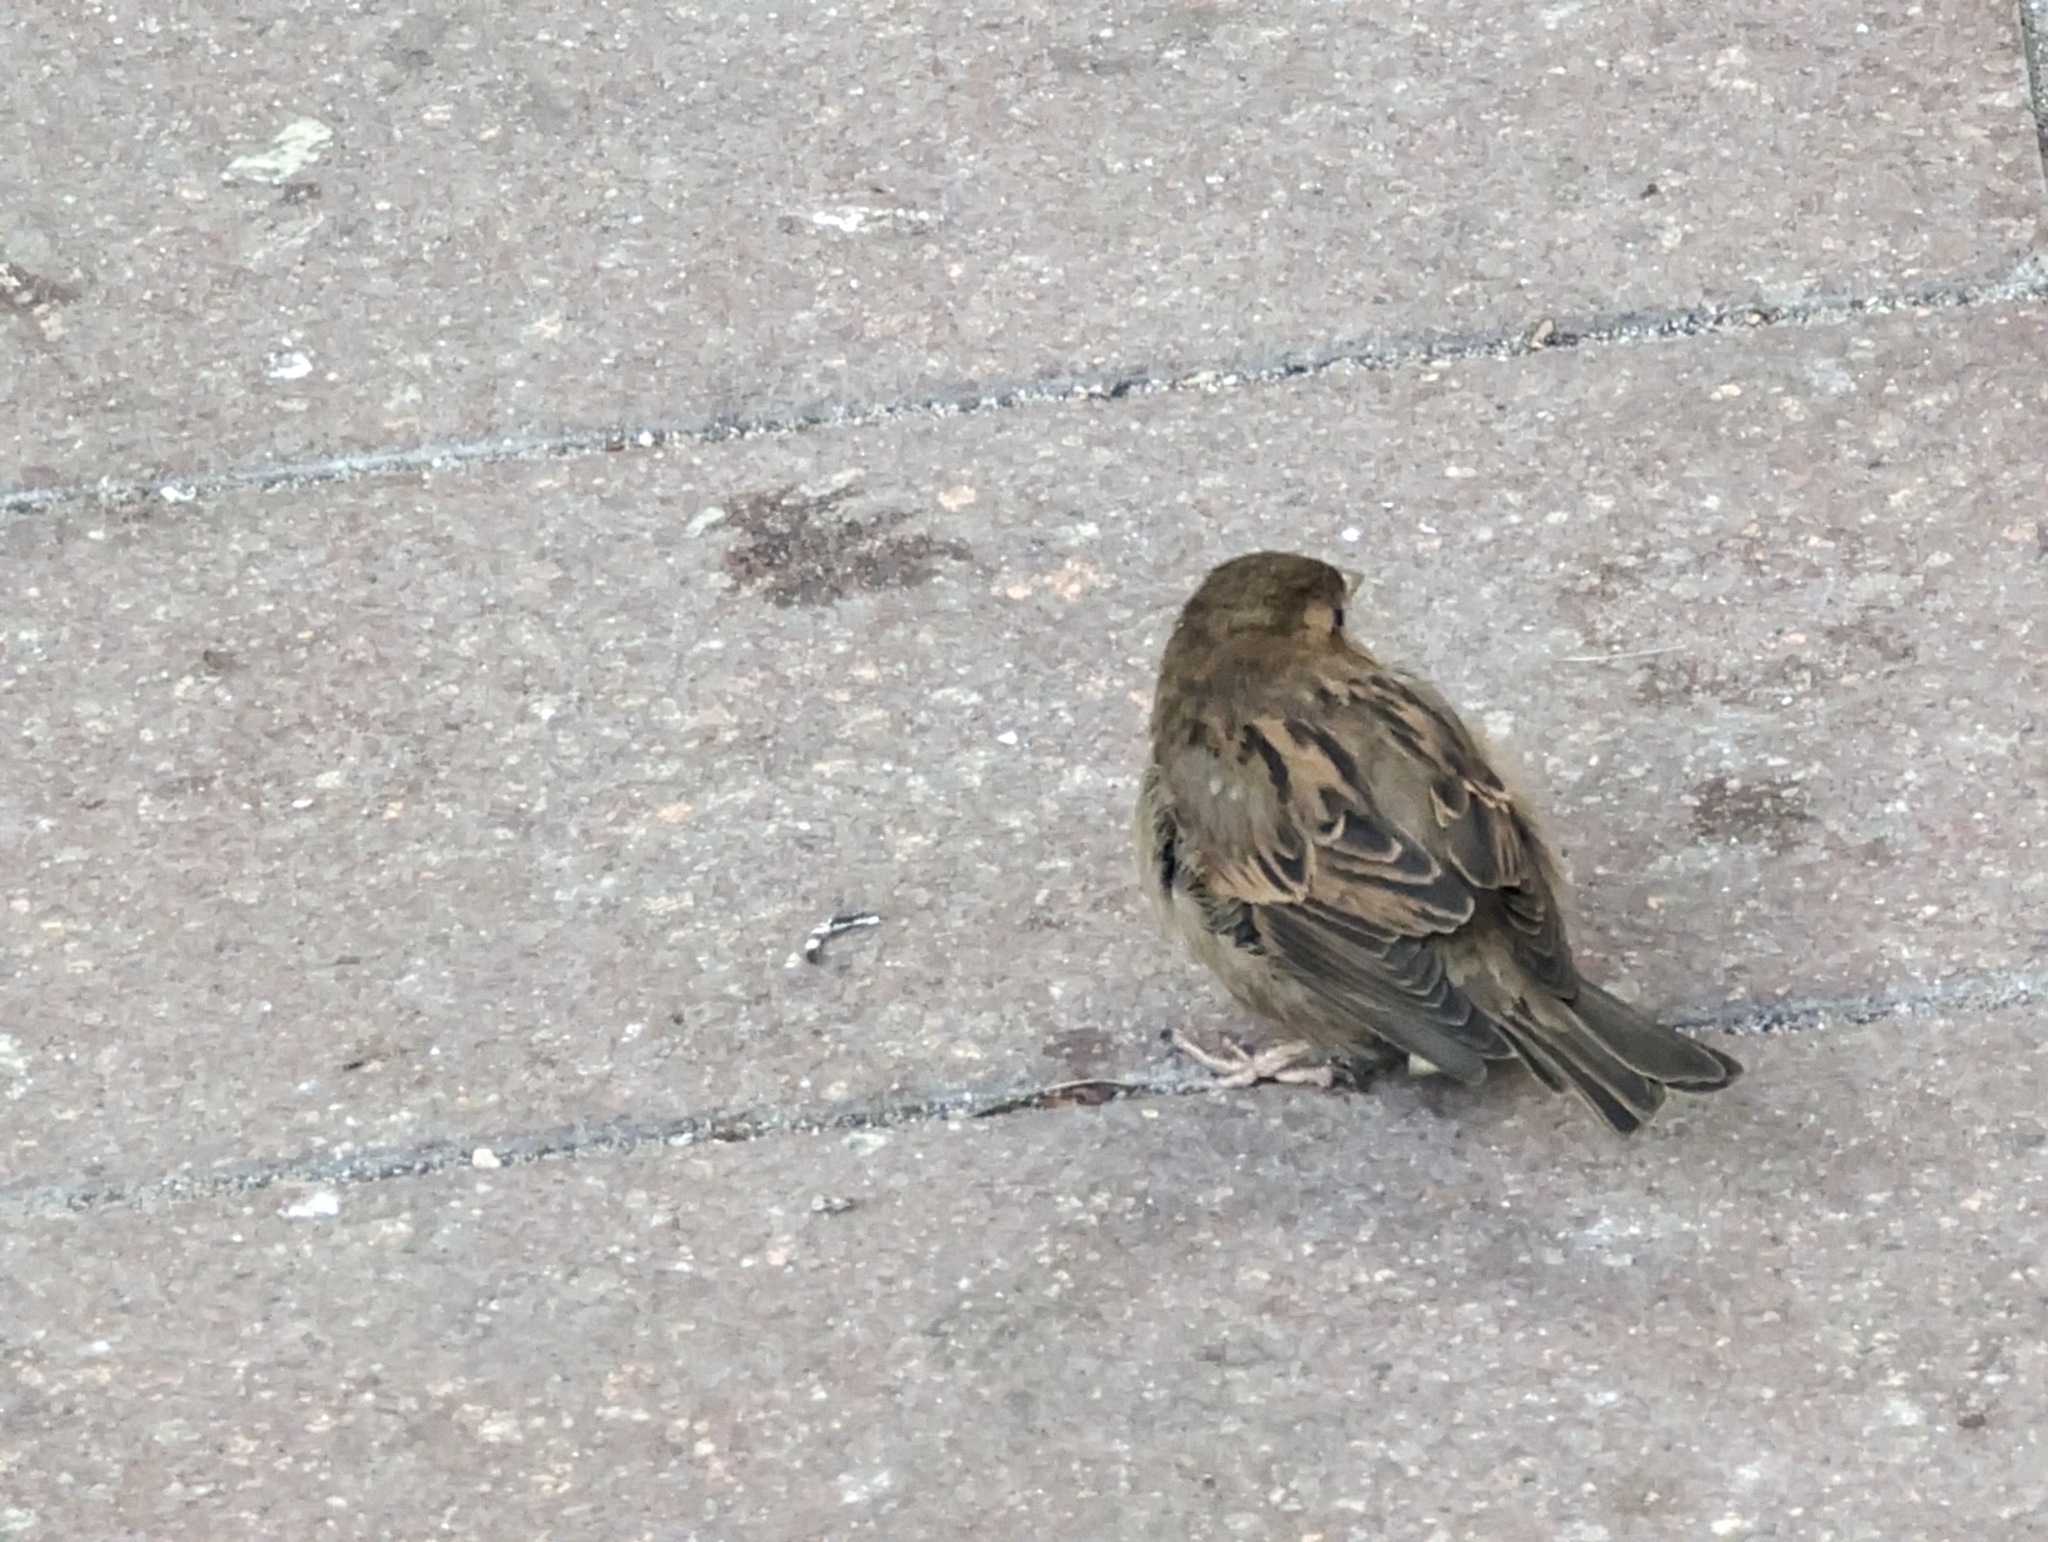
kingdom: Animalia
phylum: Chordata
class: Aves
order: Passeriformes
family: Passeridae
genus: Passer
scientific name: Passer domesticus
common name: House sparrow
